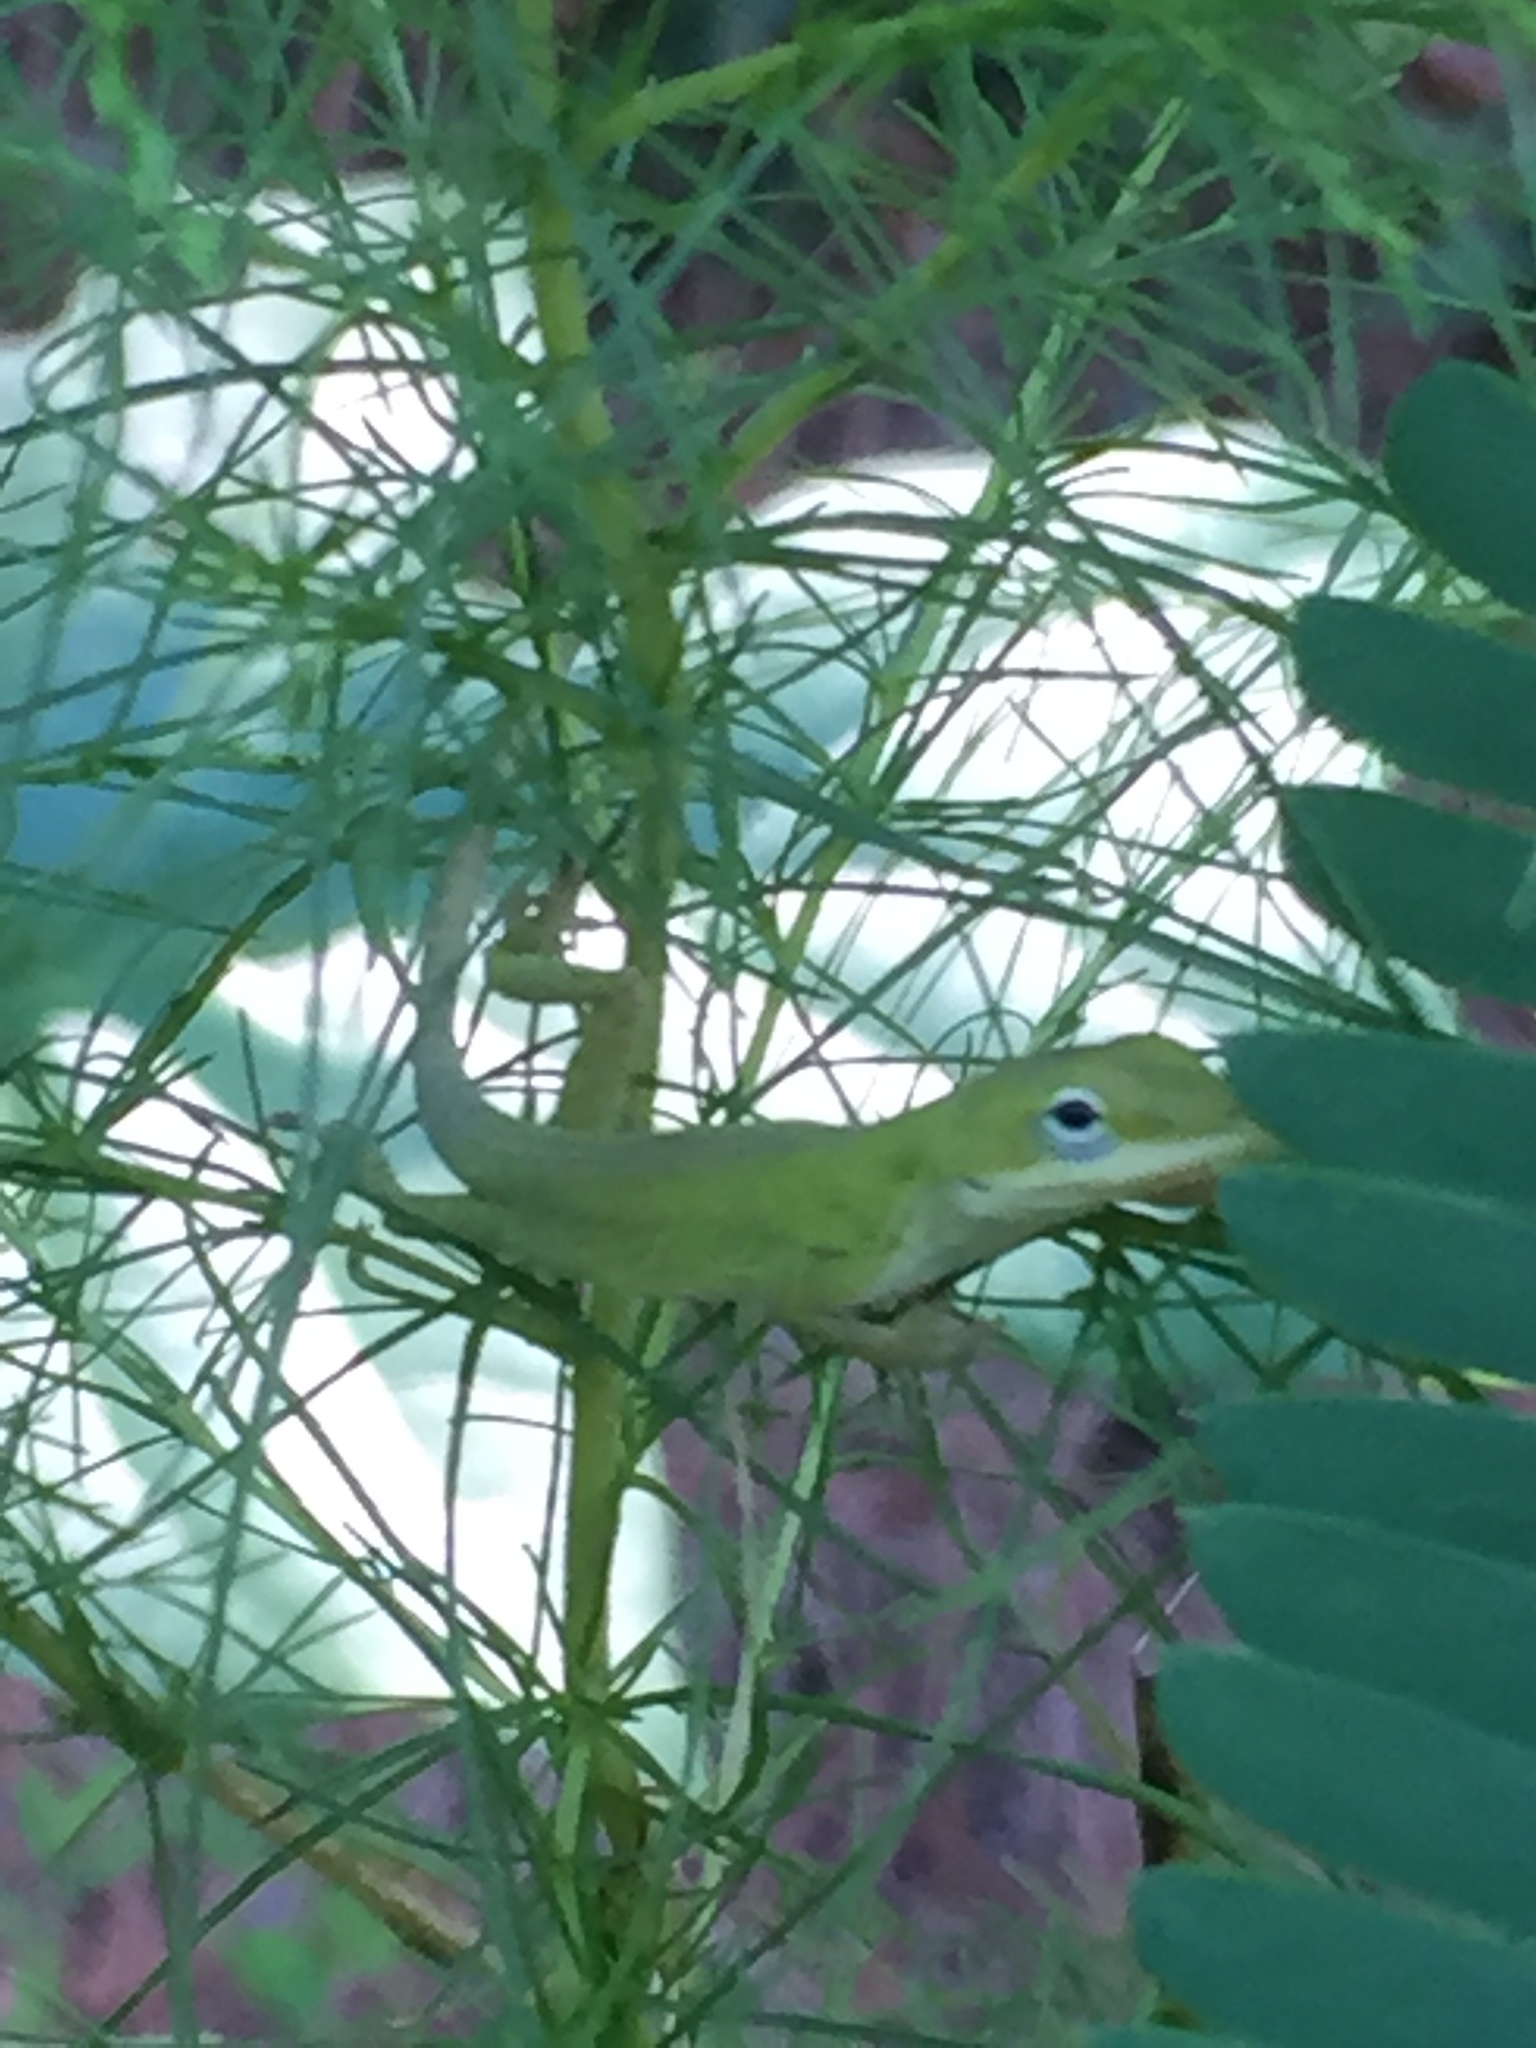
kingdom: Animalia
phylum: Chordata
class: Squamata
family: Dactyloidae
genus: Anolis
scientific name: Anolis carolinensis
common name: Green anole
